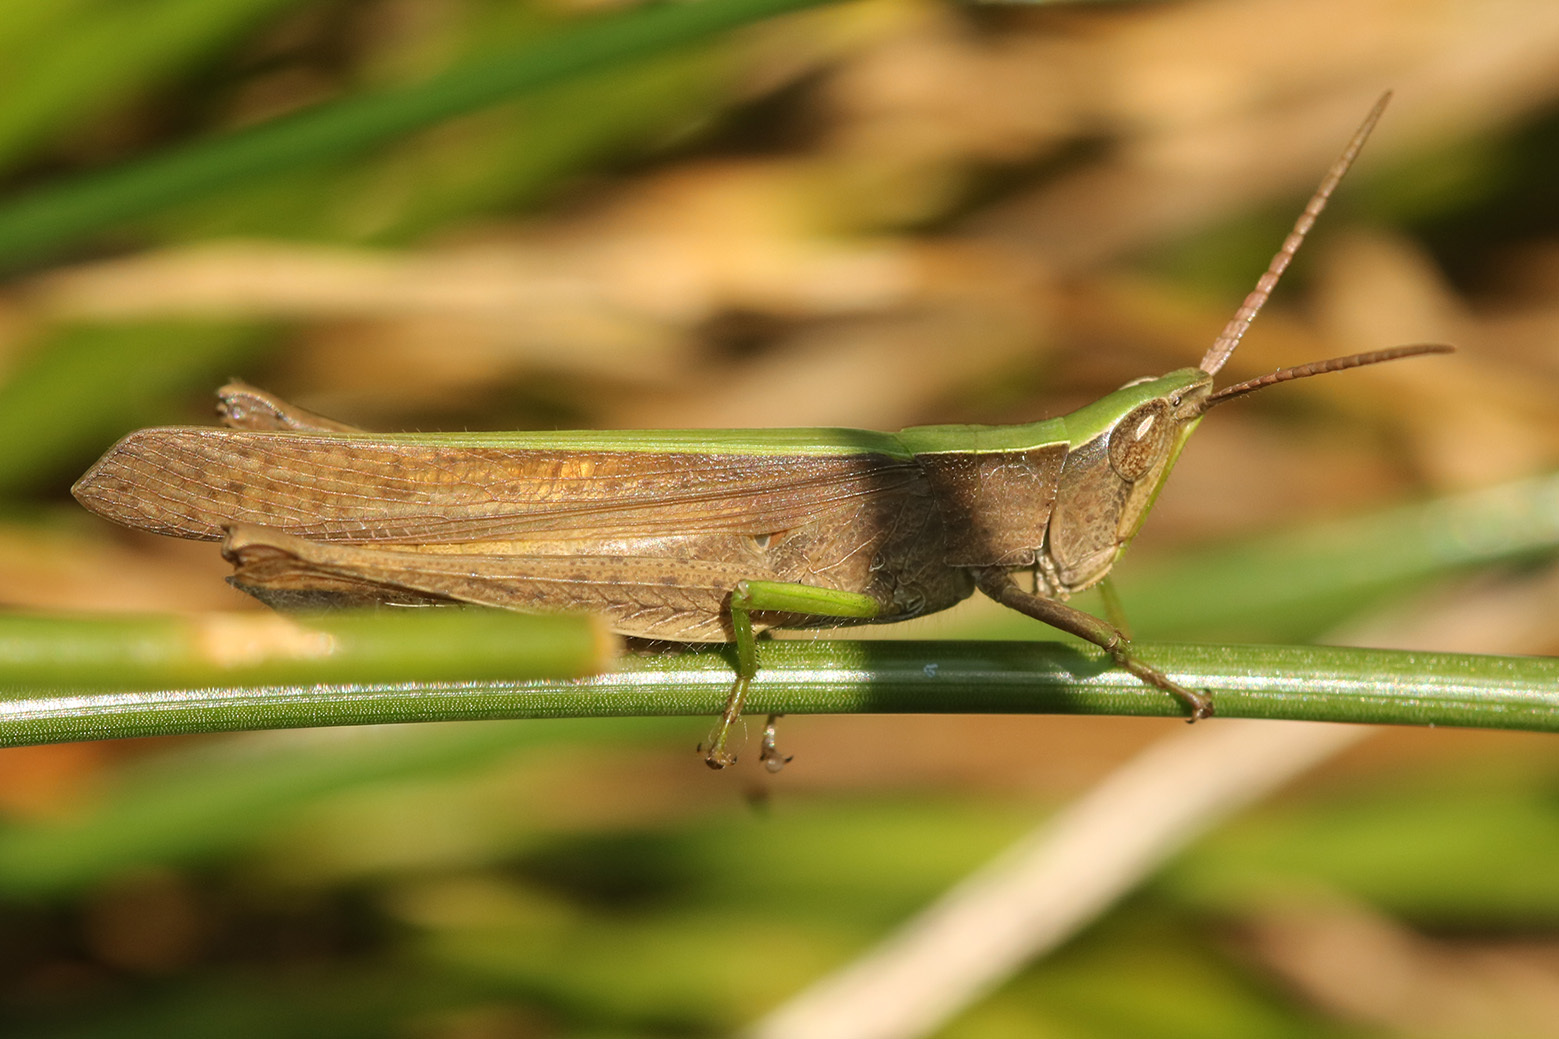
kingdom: Animalia
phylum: Arthropoda
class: Insecta
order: Orthoptera
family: Acrididae
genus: Metaleptea
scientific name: Metaleptea adspersa
